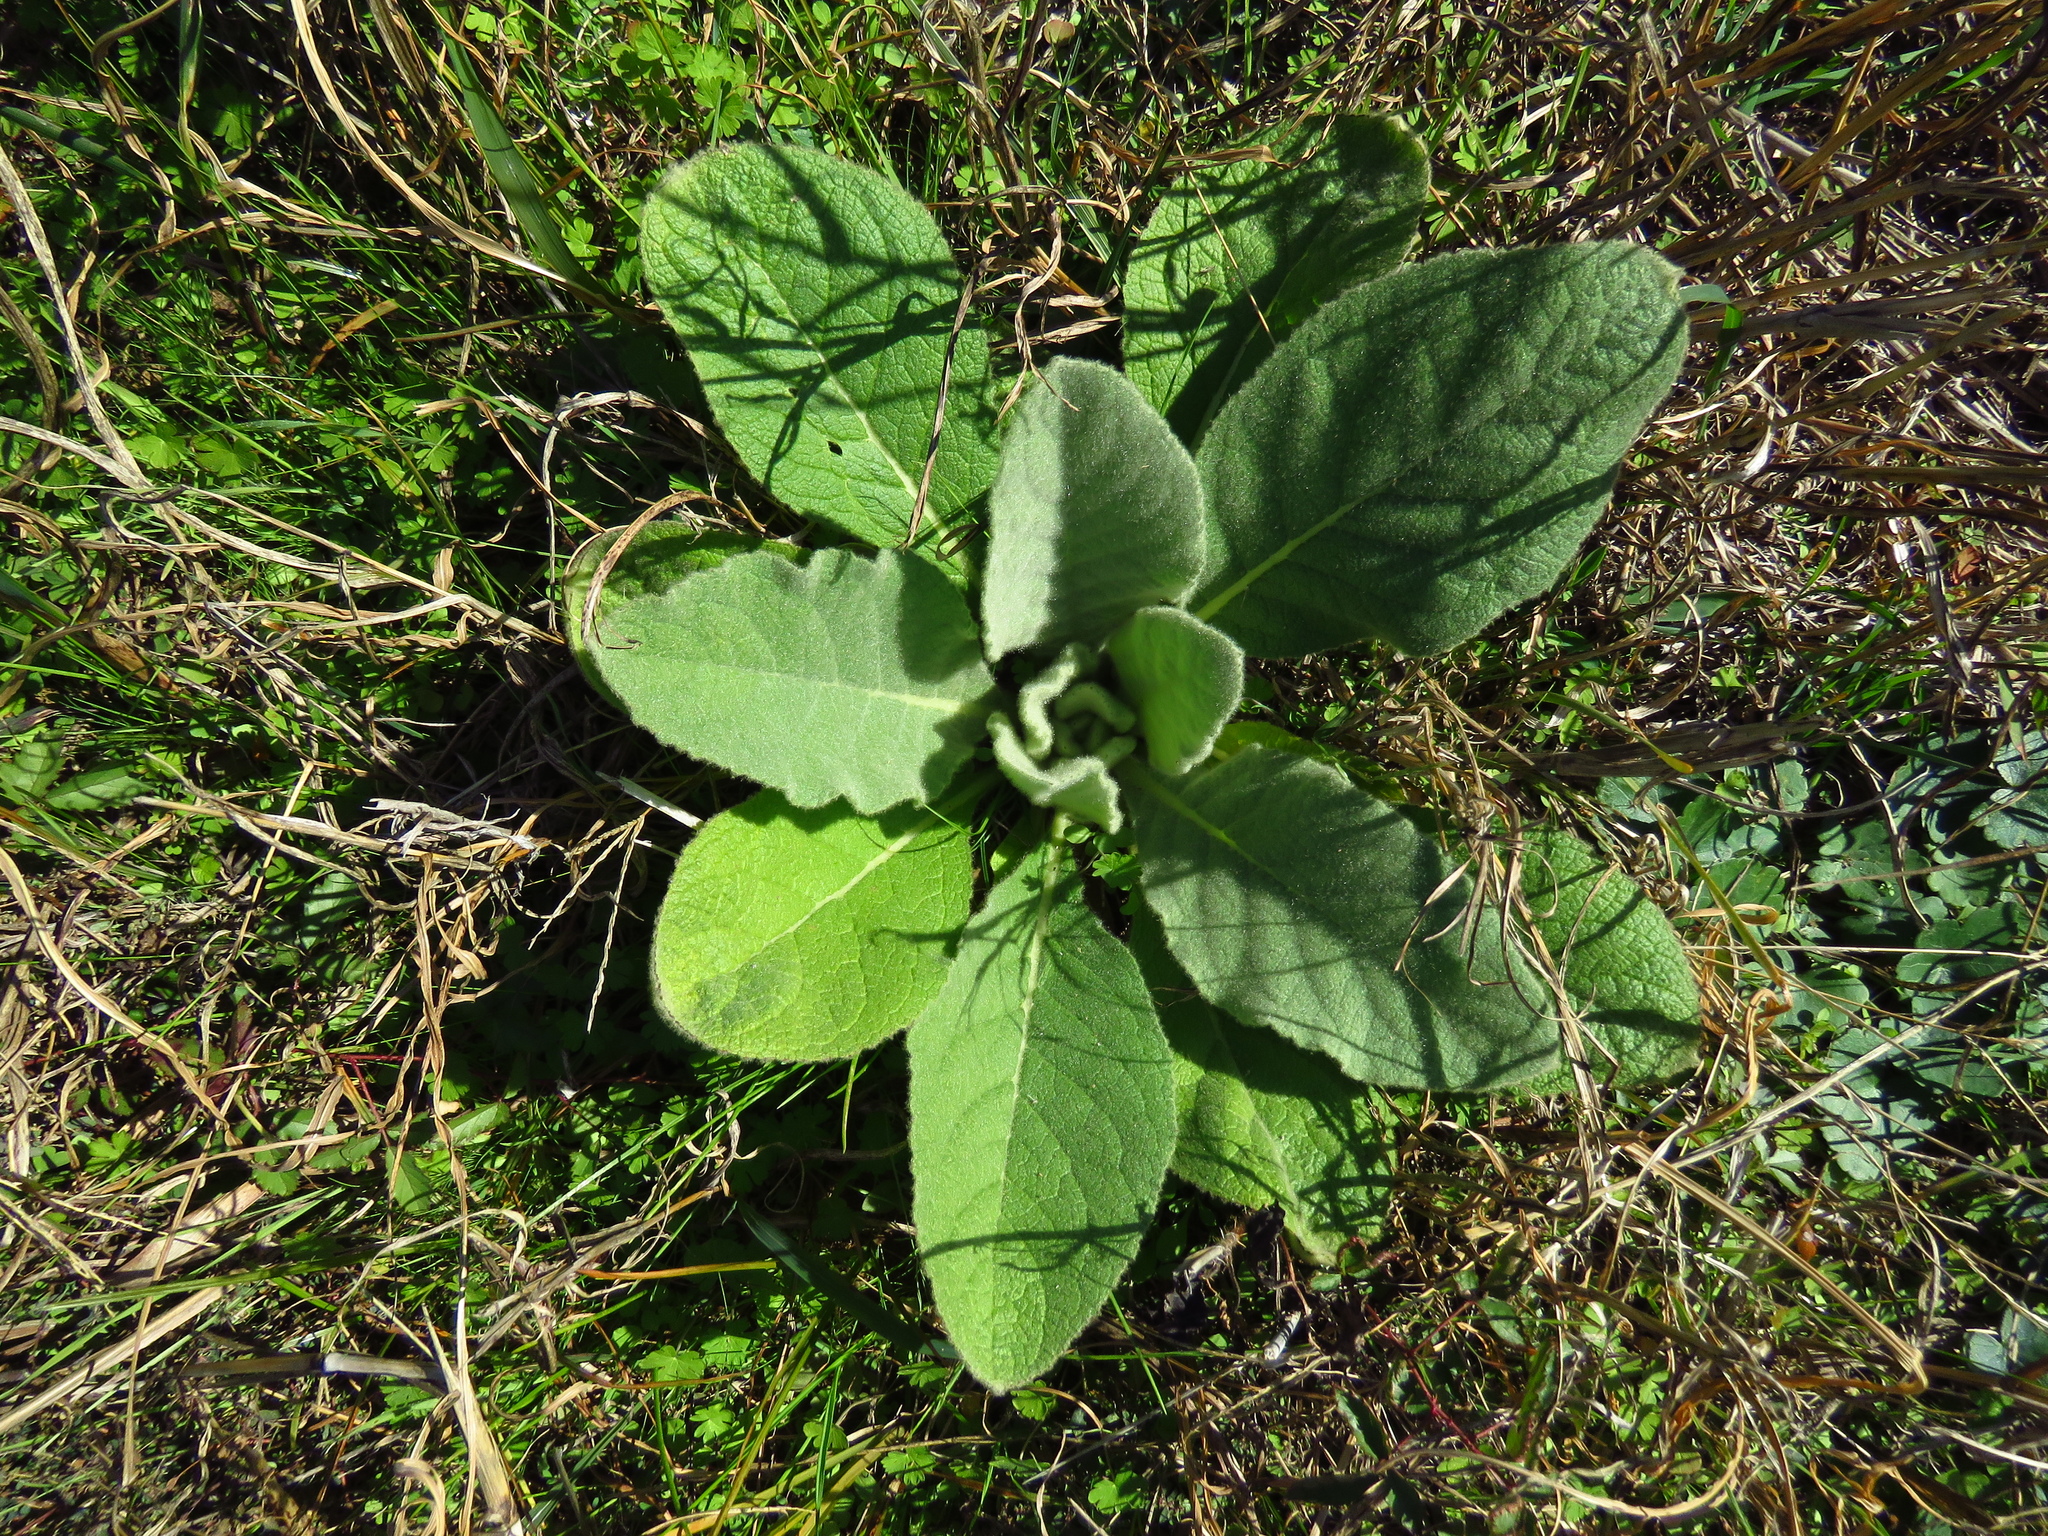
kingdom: Plantae
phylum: Tracheophyta
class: Magnoliopsida
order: Lamiales
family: Scrophulariaceae
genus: Verbascum
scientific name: Verbascum thapsus
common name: Common mullein
